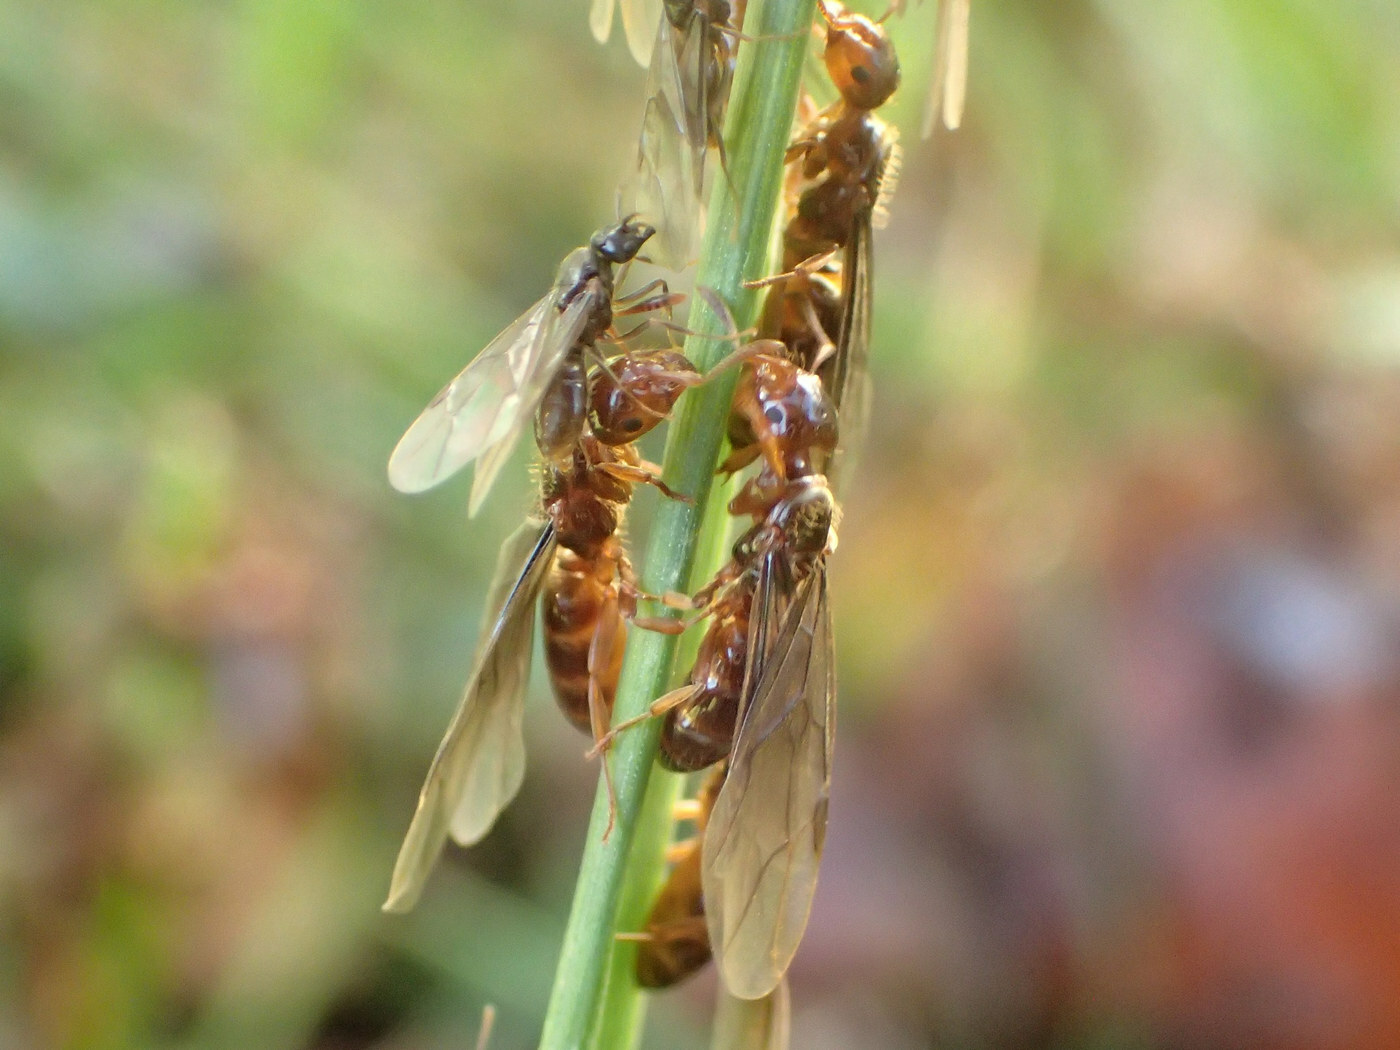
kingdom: Animalia
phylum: Arthropoda
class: Insecta
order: Hymenoptera
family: Formicidae
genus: Lasius
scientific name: Lasius claviger
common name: Common citronella ant
